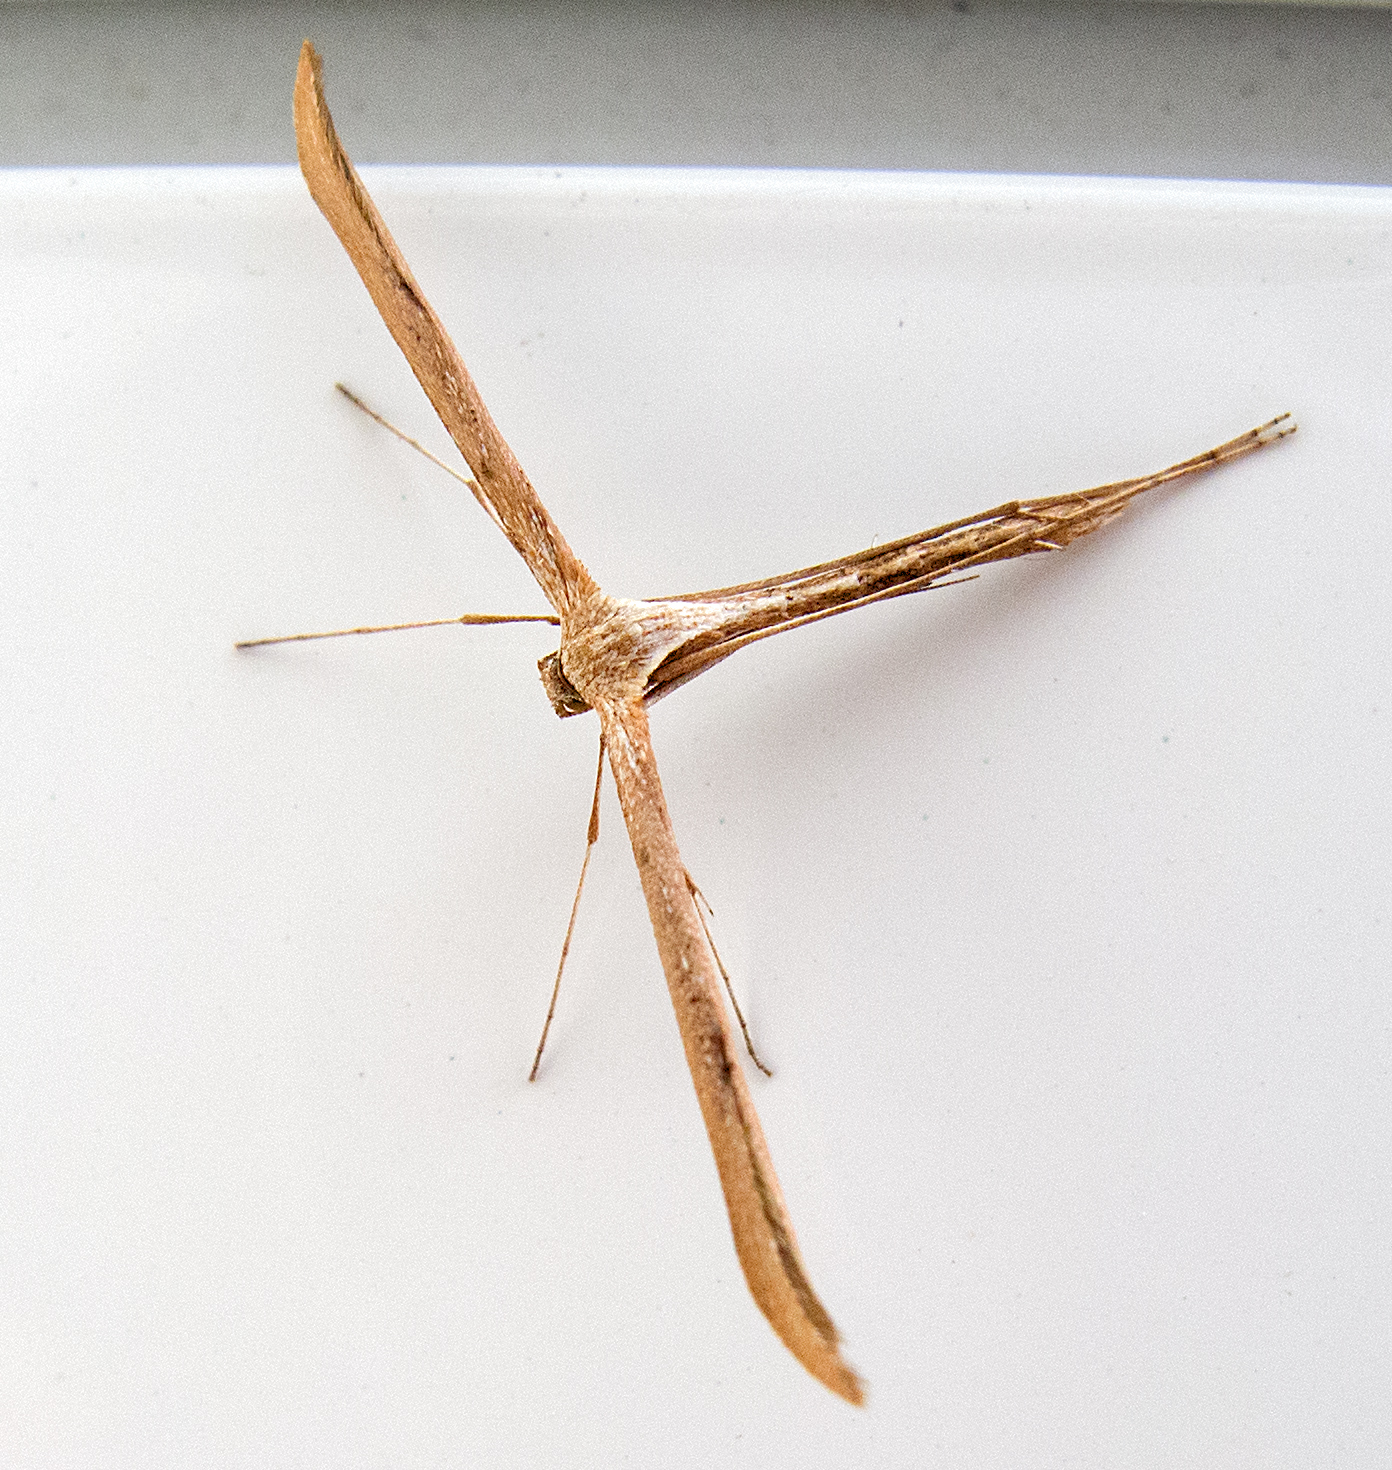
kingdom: Animalia
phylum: Arthropoda
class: Insecta
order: Lepidoptera
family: Pterophoridae
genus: Emmelina
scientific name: Emmelina monodactyla
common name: Common plume
